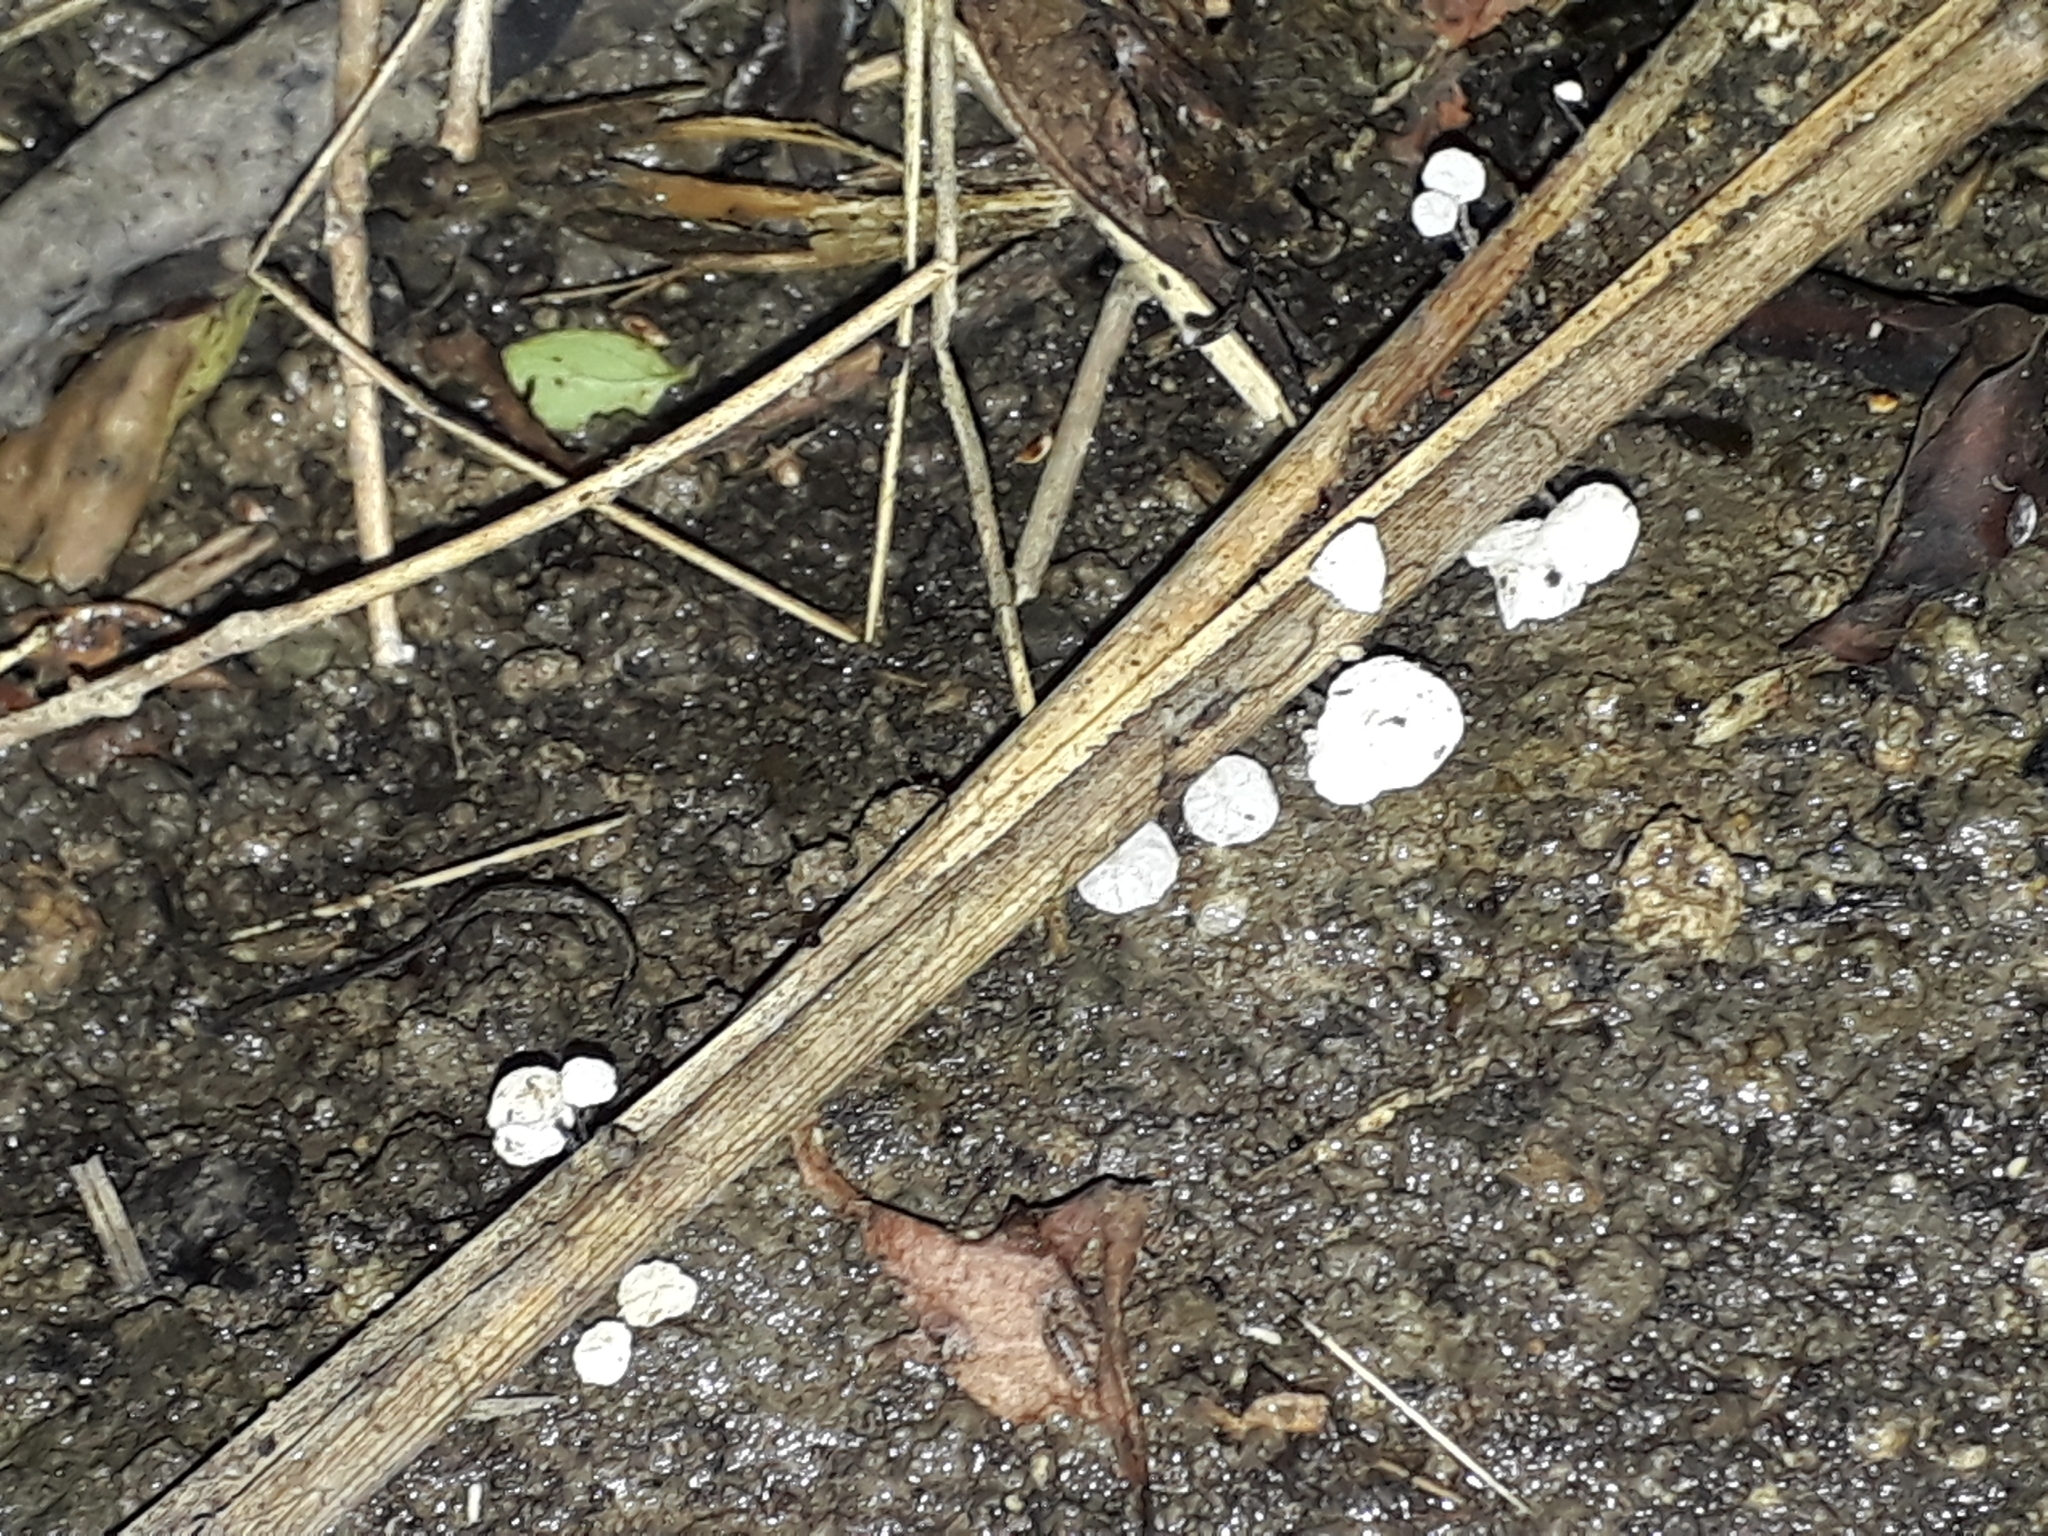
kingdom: Fungi
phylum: Basidiomycota
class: Agaricomycetes
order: Agaricales
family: Marasmiaceae
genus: Campanella
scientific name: Campanella
